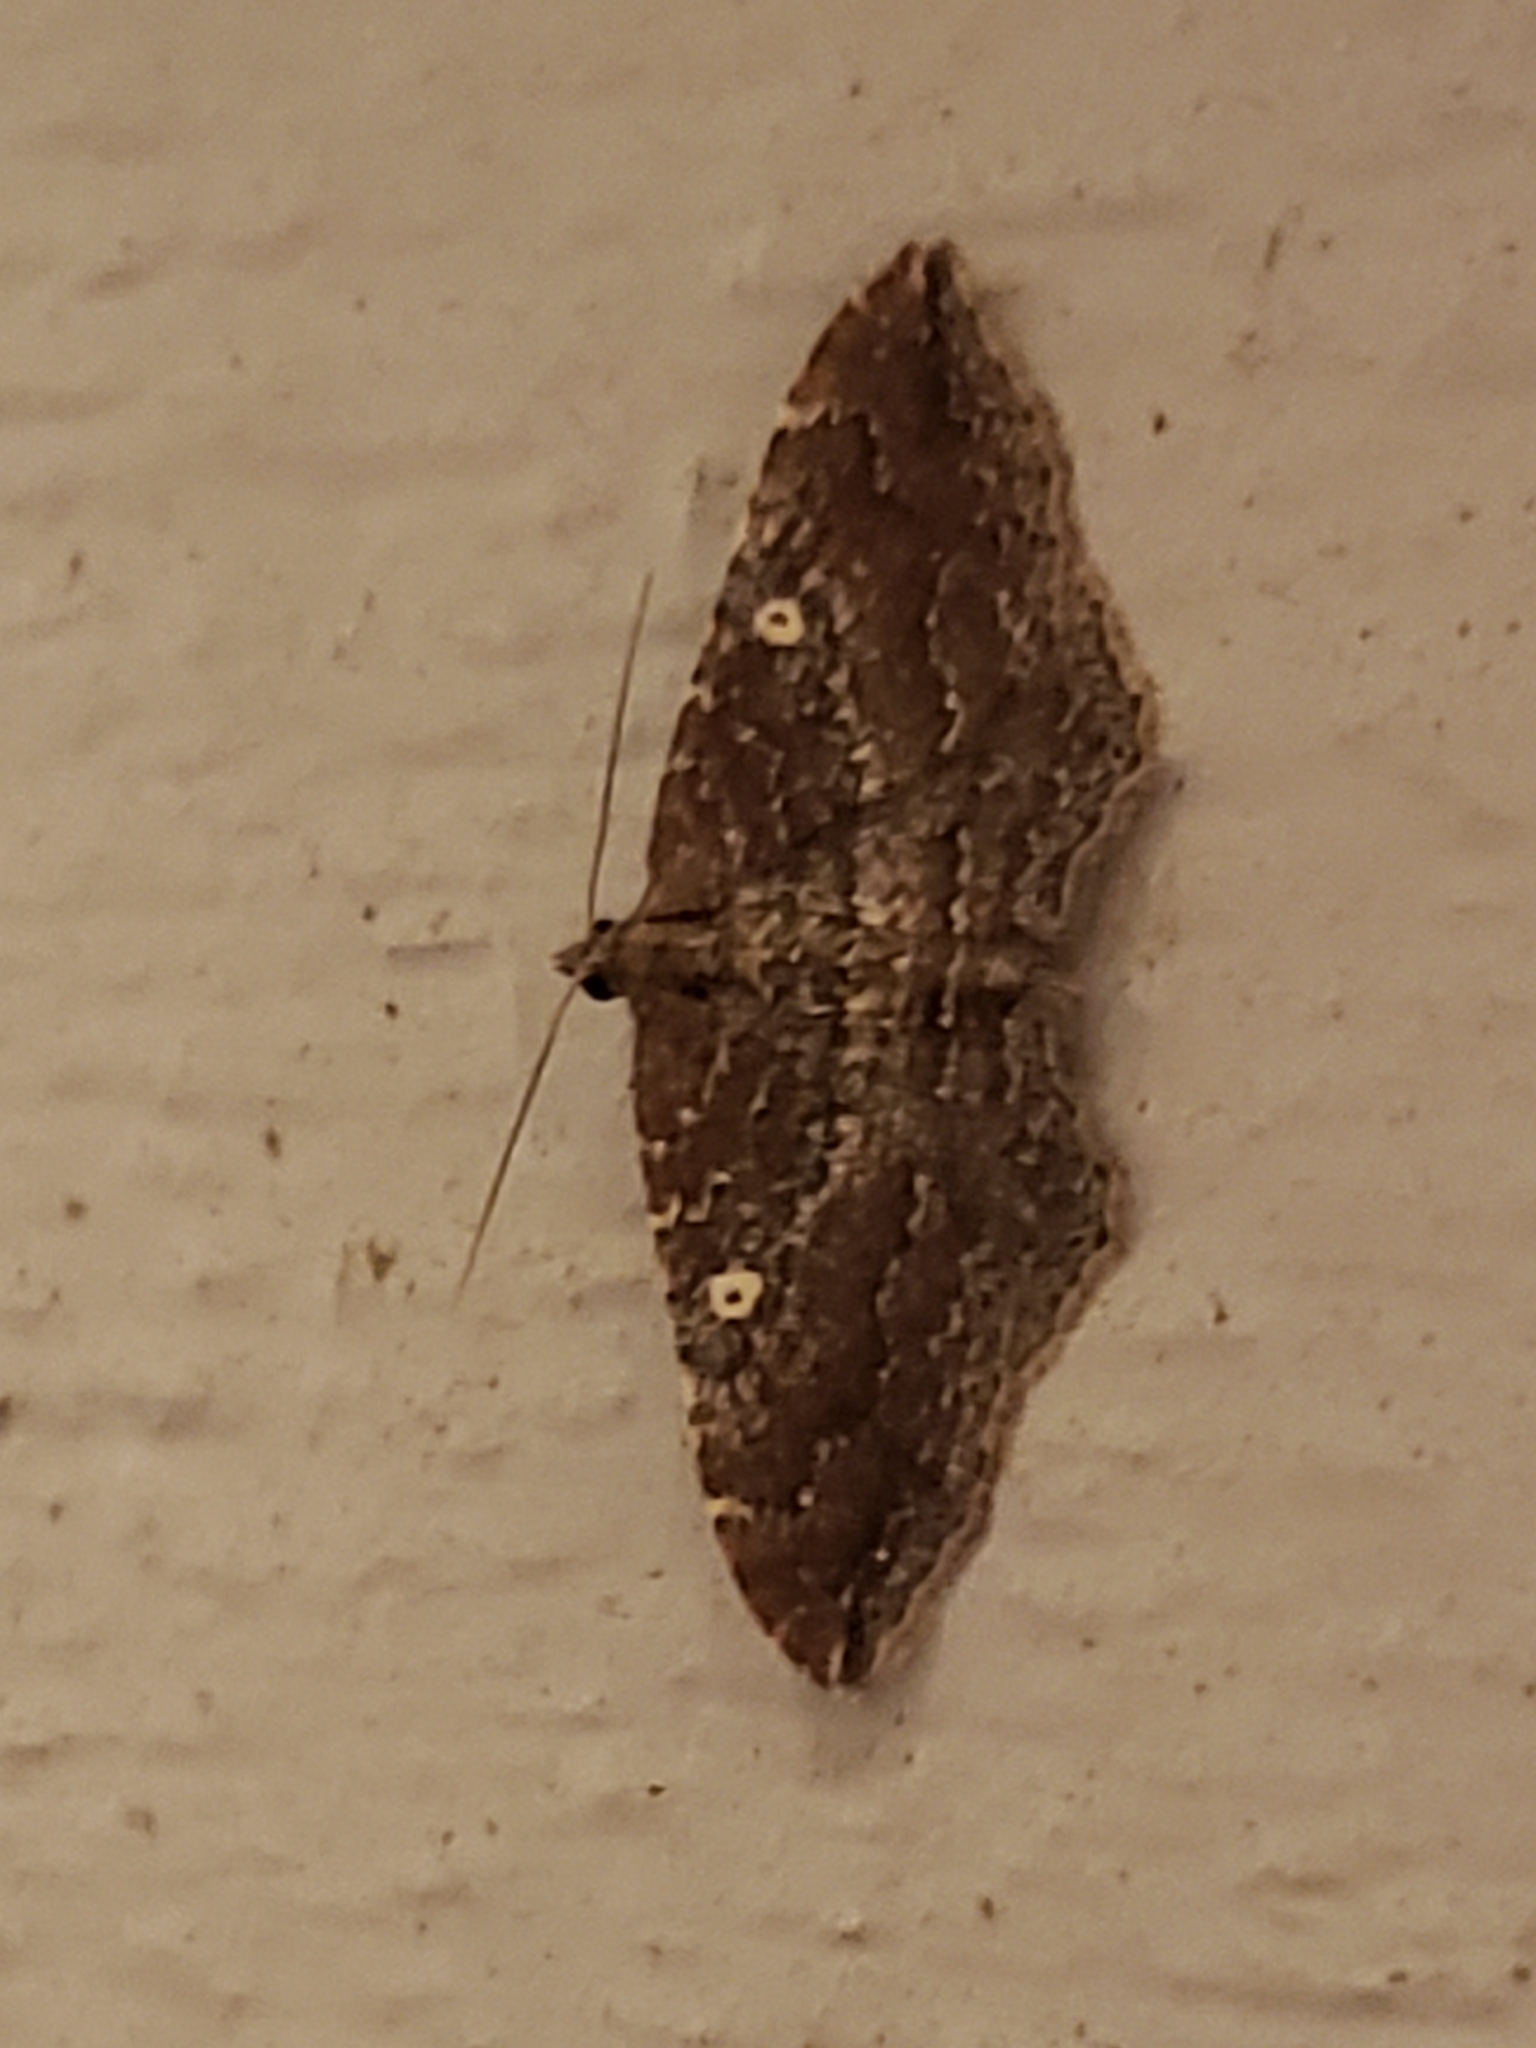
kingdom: Animalia
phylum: Arthropoda
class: Insecta
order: Lepidoptera
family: Geometridae
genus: Orthonama
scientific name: Orthonama obstipata
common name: The gem
